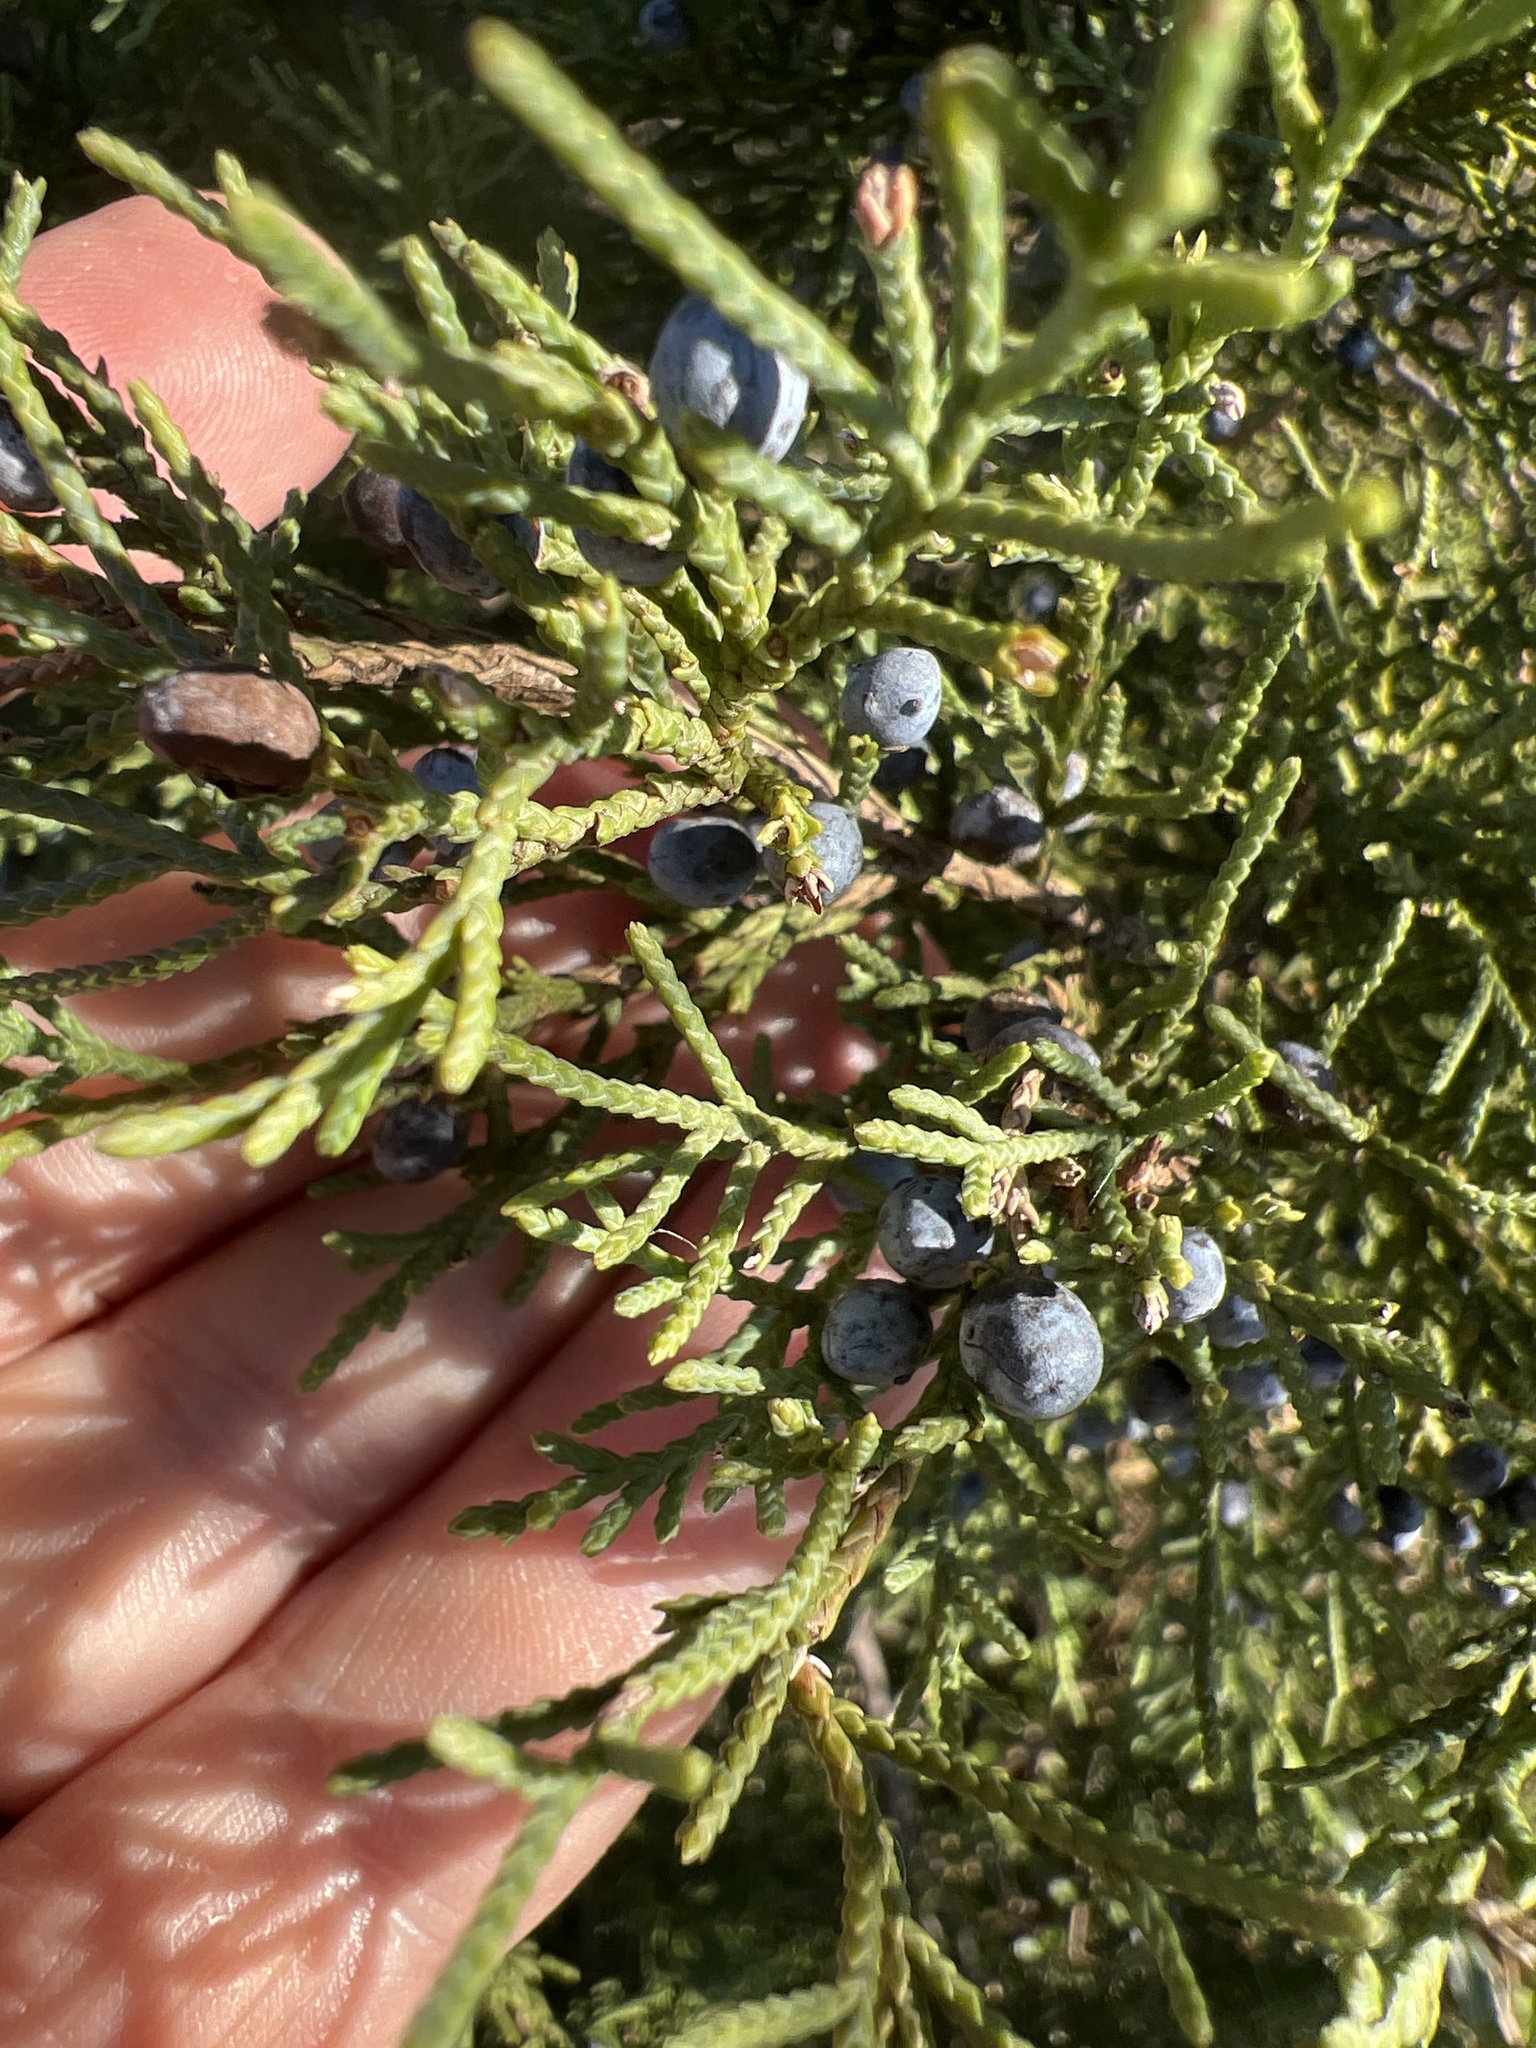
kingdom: Plantae
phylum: Tracheophyta
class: Pinopsida
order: Pinales
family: Cupressaceae
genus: Juniperus
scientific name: Juniperus virginiana
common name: Red juniper
